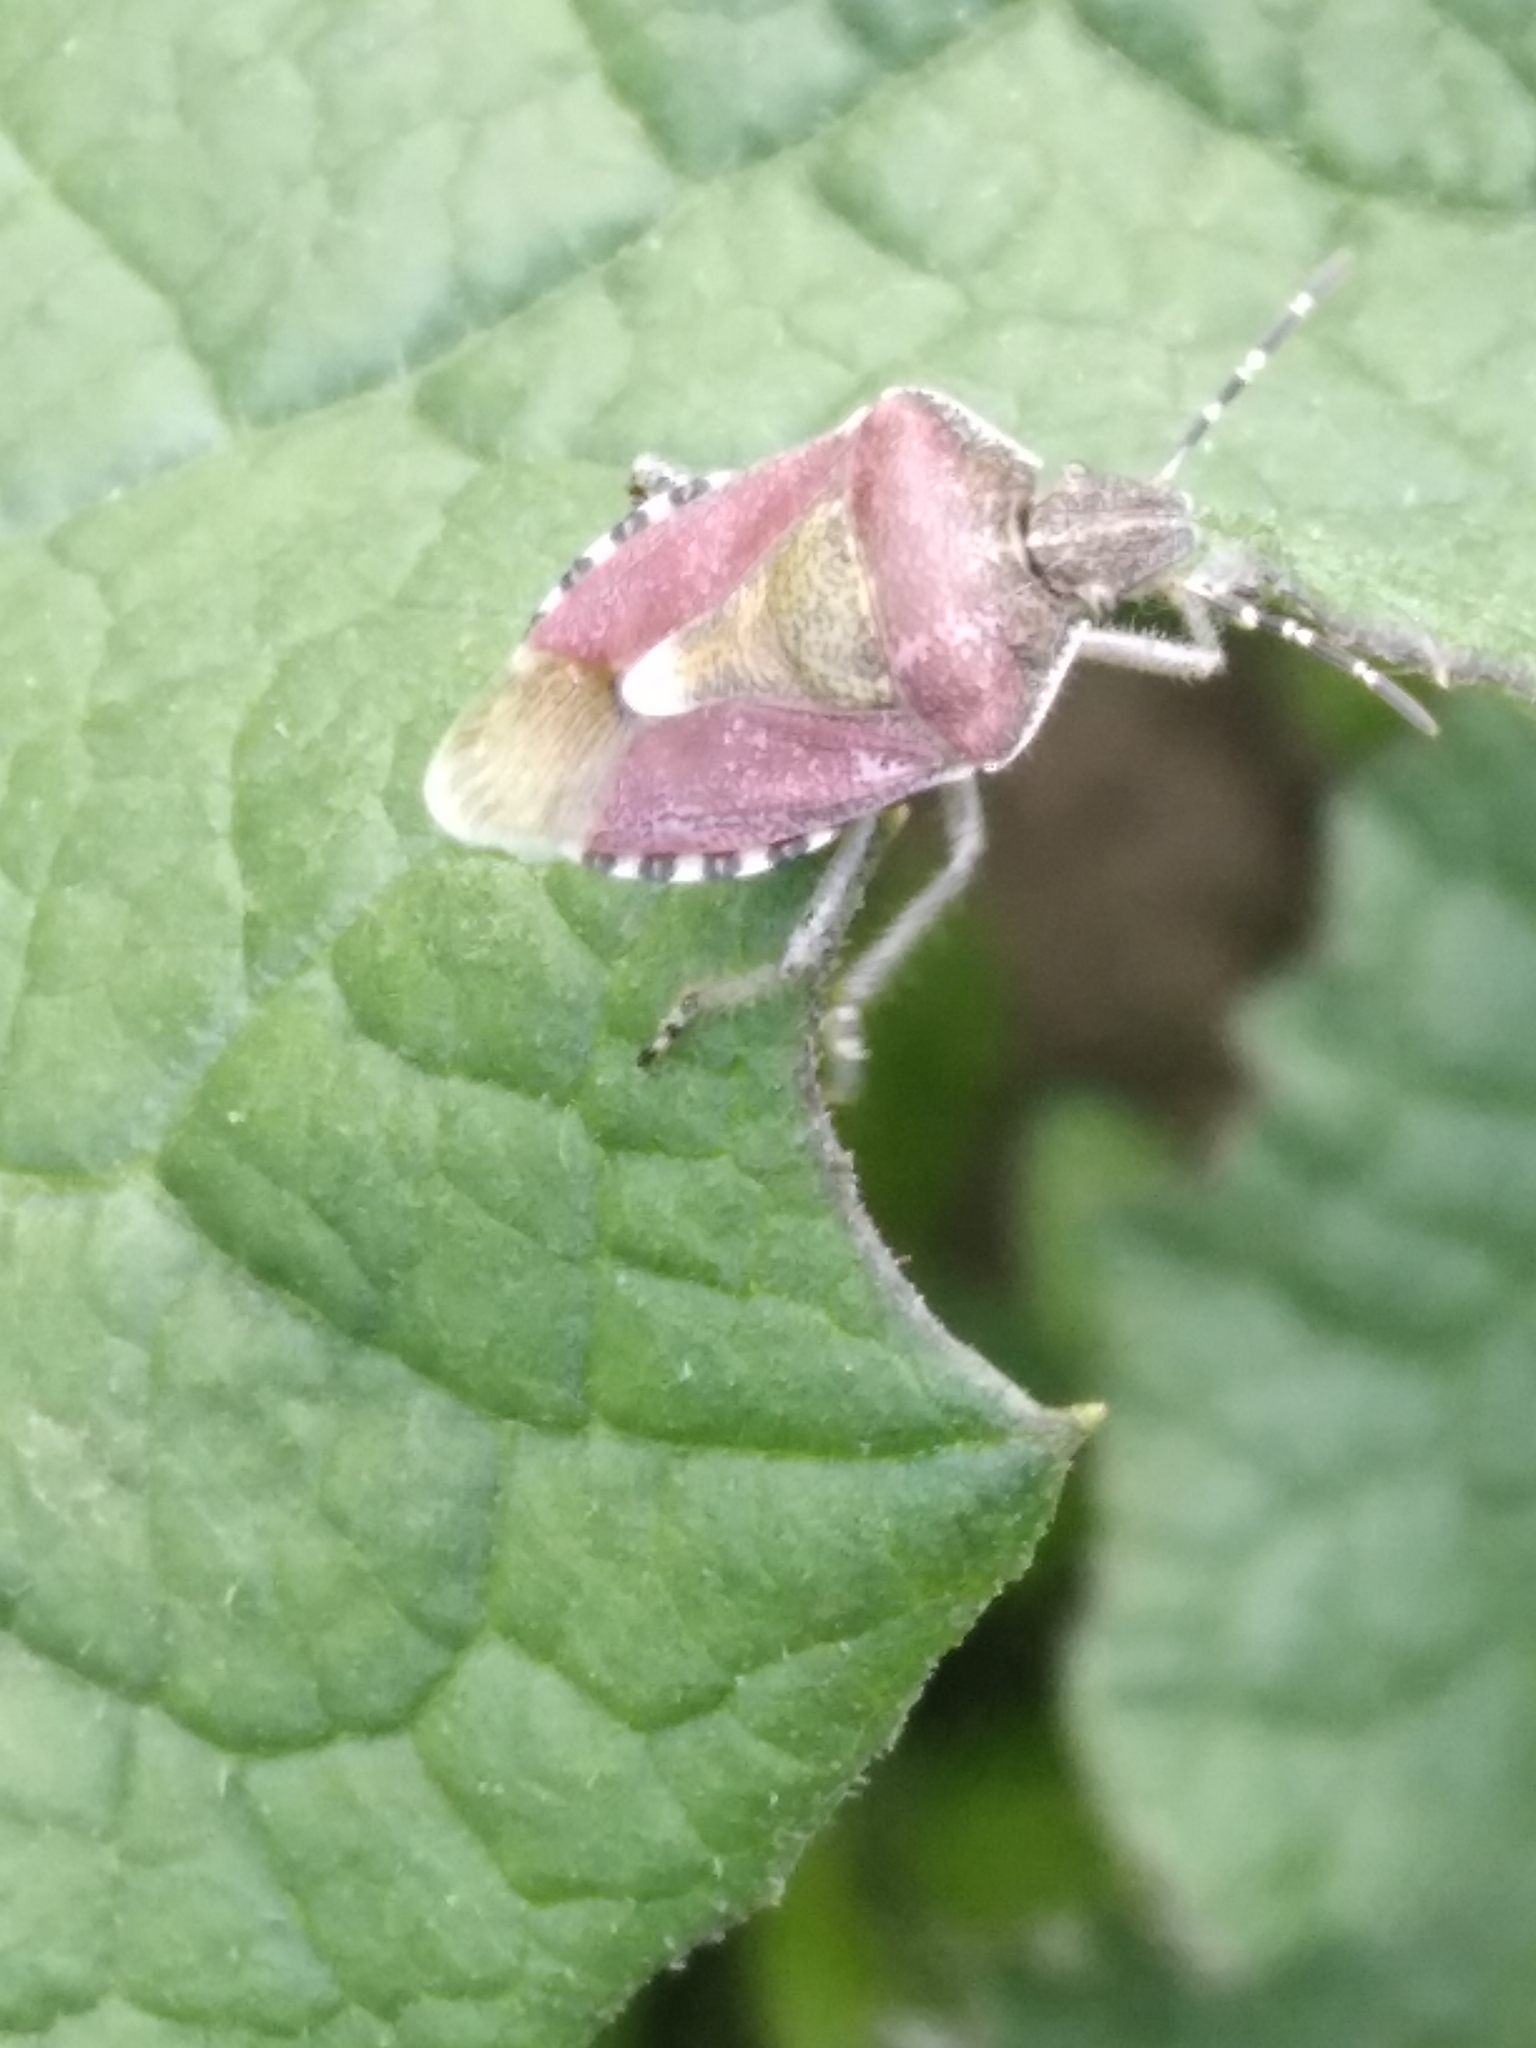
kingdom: Animalia
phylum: Arthropoda
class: Insecta
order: Hemiptera
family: Pentatomidae
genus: Dolycoris
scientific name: Dolycoris baccarum
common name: Sloe bug
